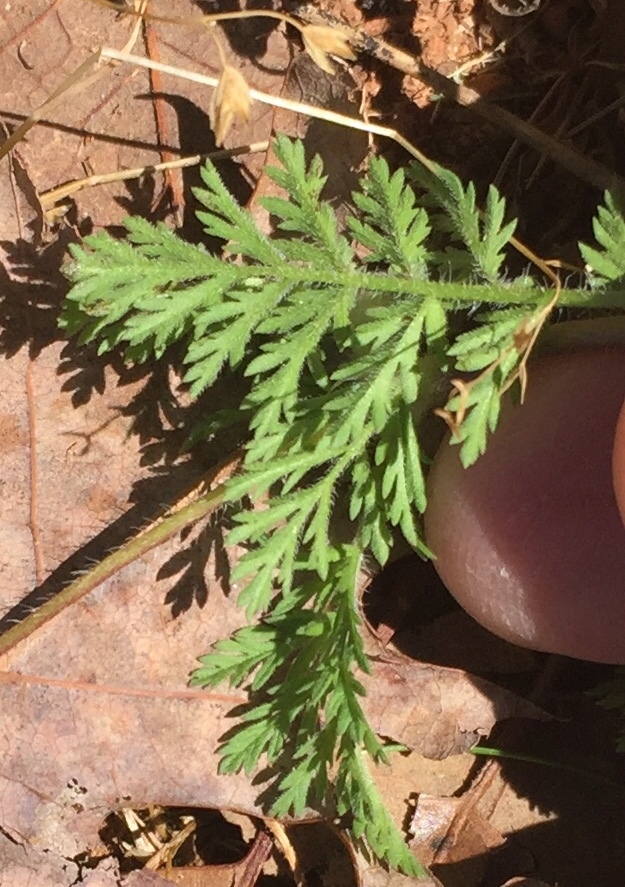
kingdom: Plantae
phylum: Tracheophyta
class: Magnoliopsida
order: Geraniales
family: Geraniaceae
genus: Erodium
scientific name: Erodium cicutarium
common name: Common stork's-bill
